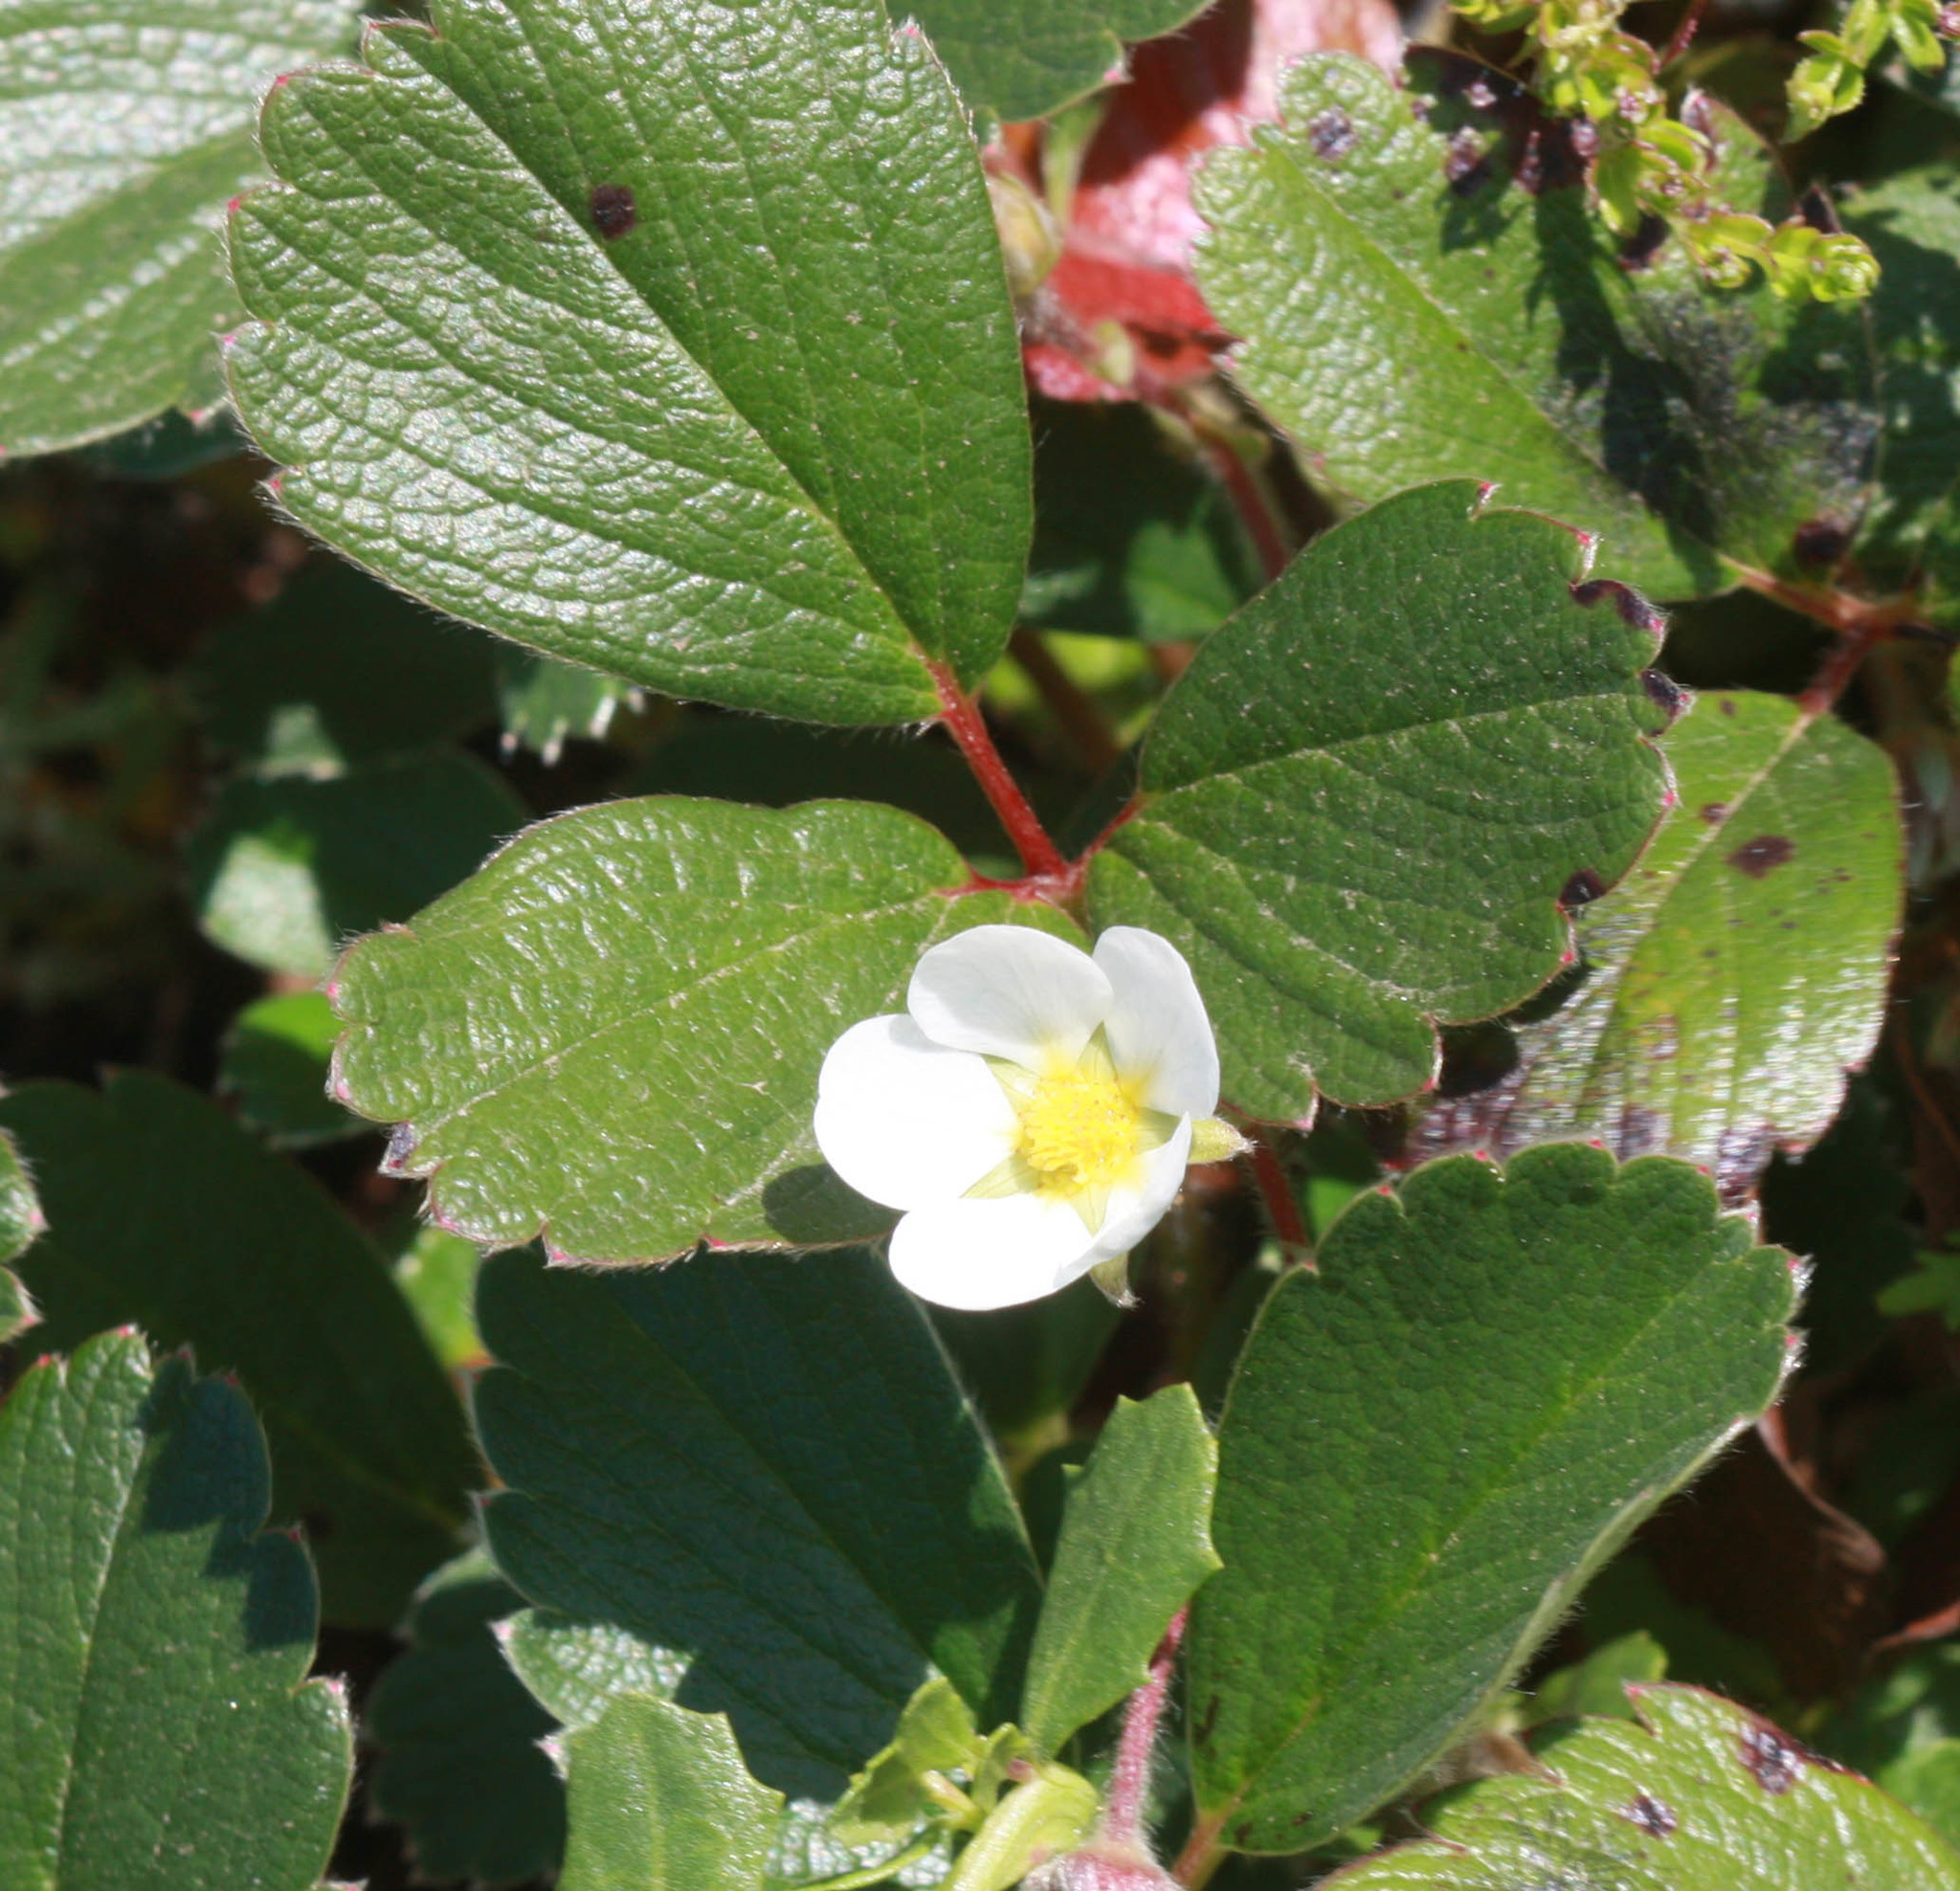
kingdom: Plantae
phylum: Tracheophyta
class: Magnoliopsida
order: Rosales
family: Rosaceae
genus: Fragaria
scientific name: Fragaria chiloensis
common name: Beach strawberry
